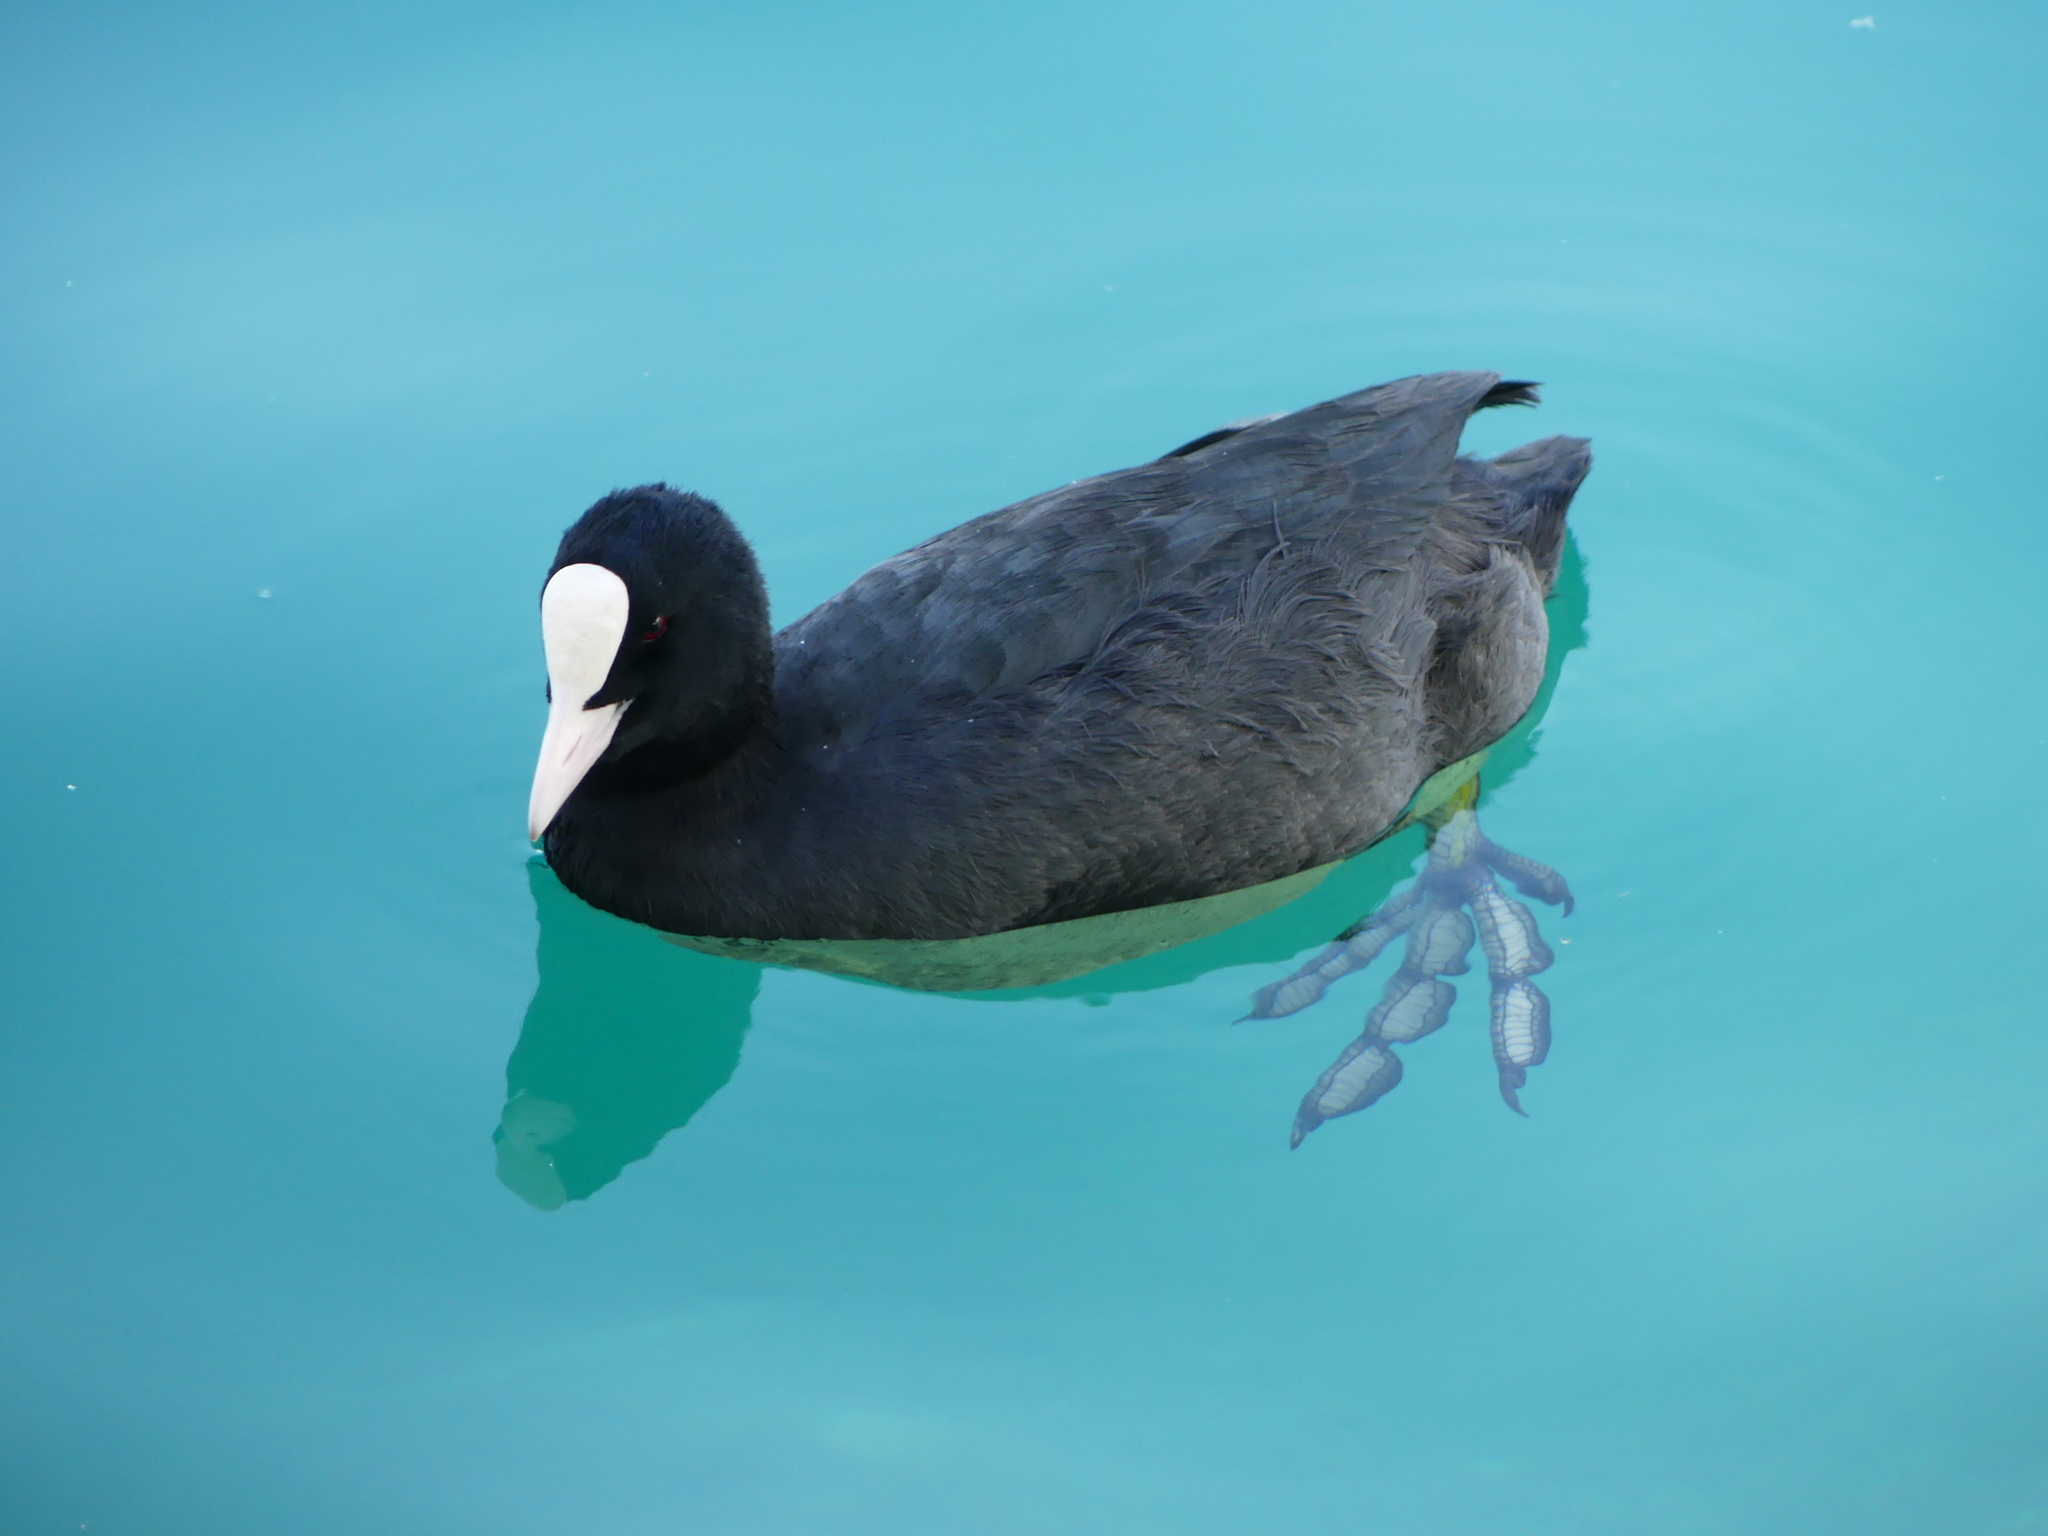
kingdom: Animalia
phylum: Chordata
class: Aves
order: Gruiformes
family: Rallidae
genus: Fulica
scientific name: Fulica atra
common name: Eurasian coot
